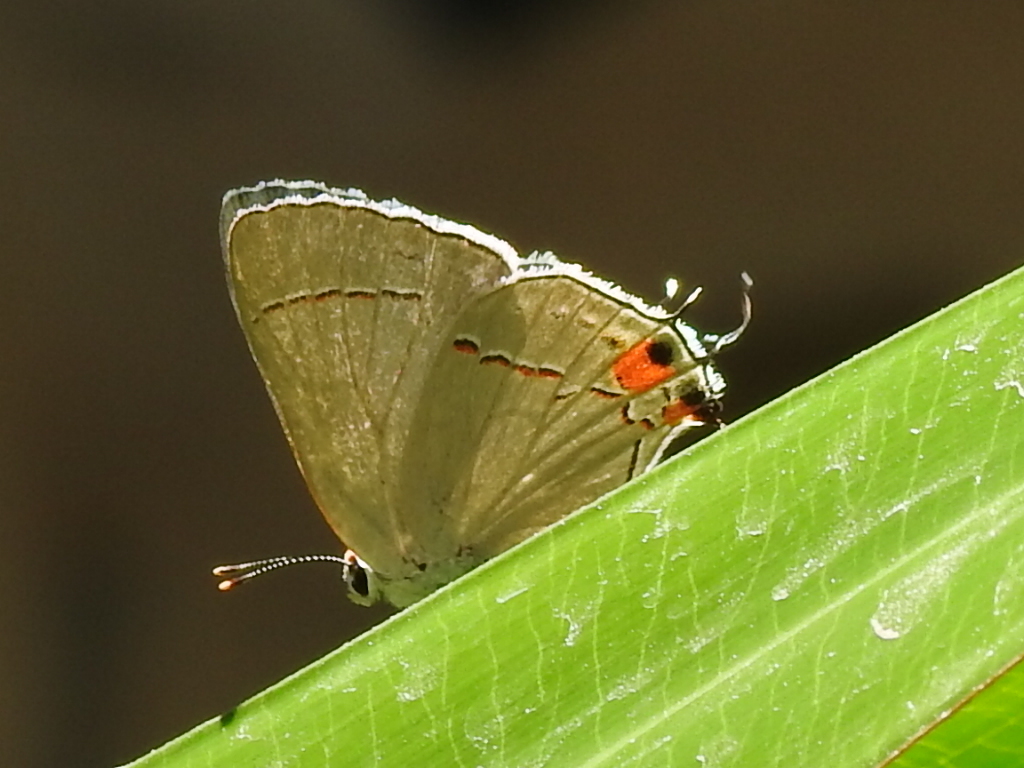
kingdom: Animalia
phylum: Arthropoda
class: Insecta
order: Lepidoptera
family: Lycaenidae
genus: Strymon
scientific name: Strymon melinus
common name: Gray hairstreak
